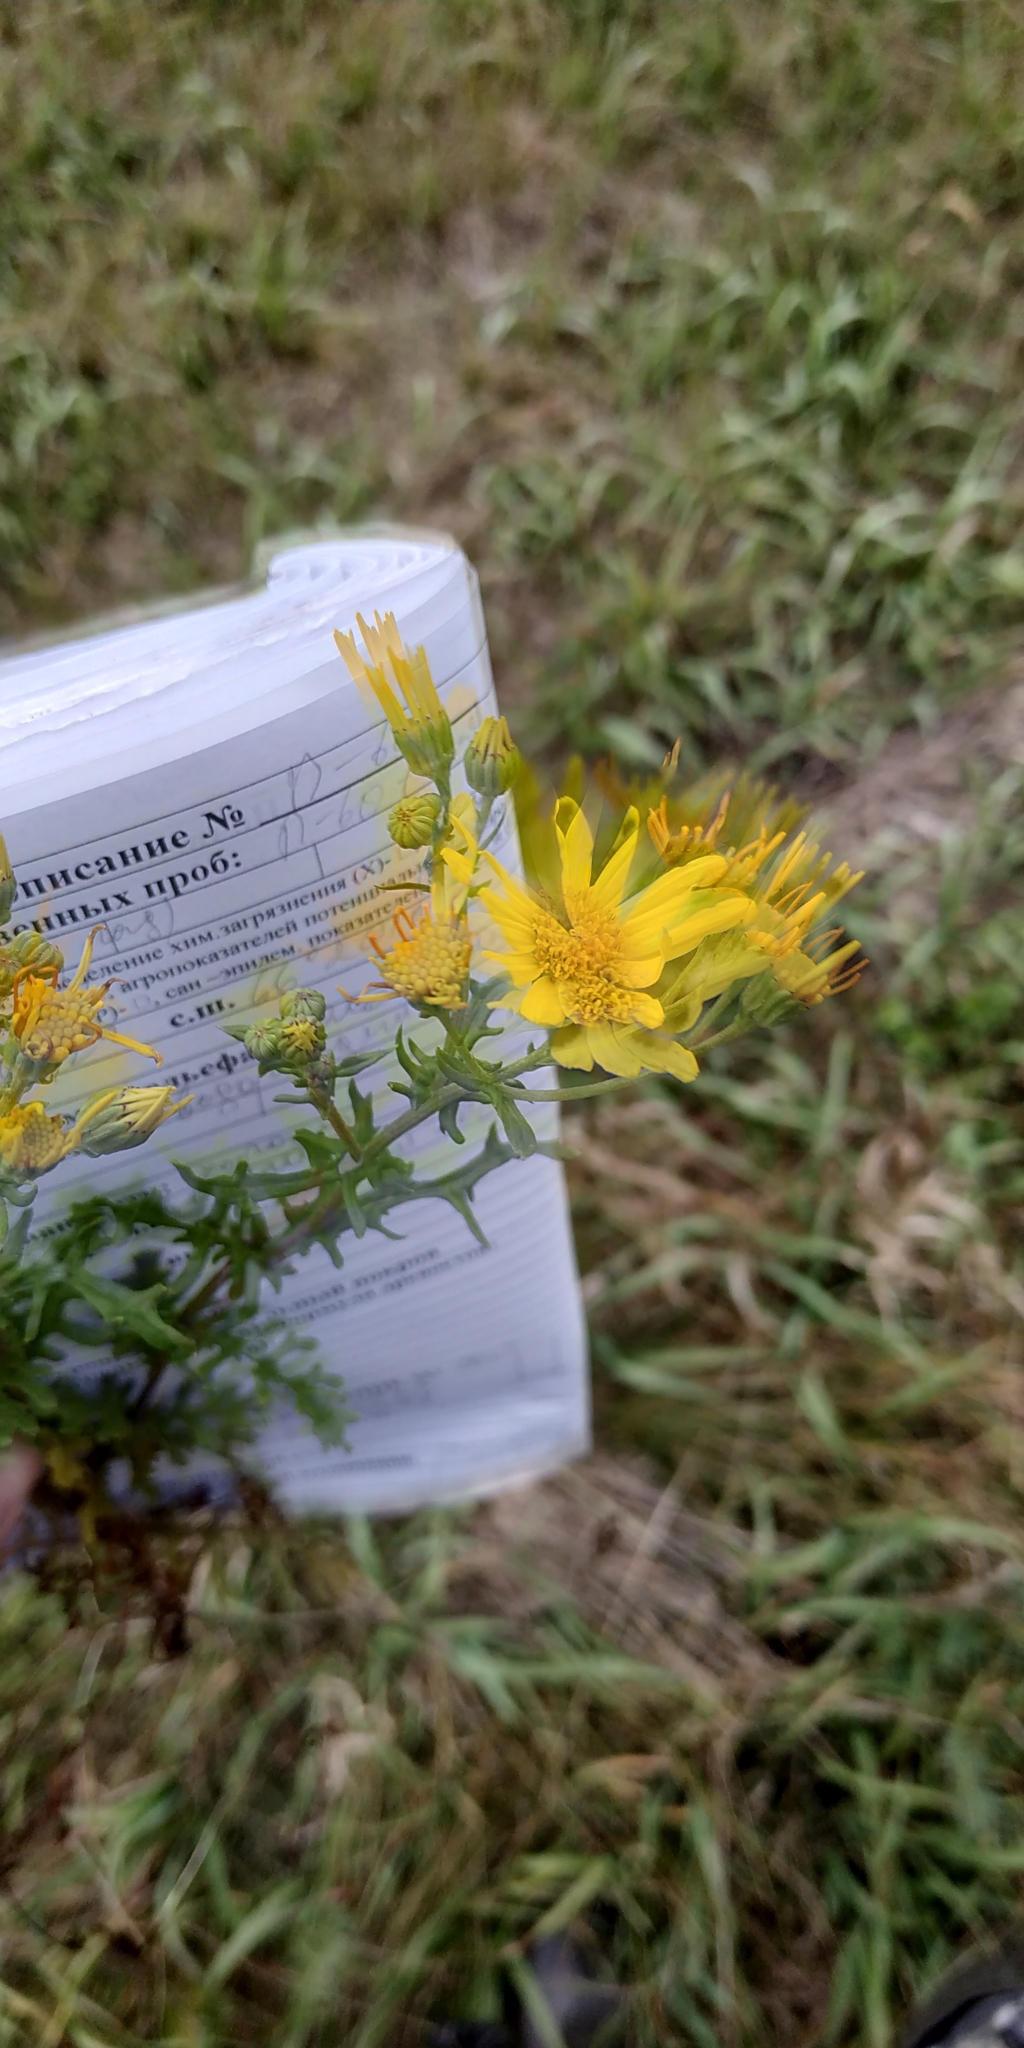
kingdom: Plantae
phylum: Tracheophyta
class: Magnoliopsida
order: Asterales
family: Asteraceae
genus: Jacobaea
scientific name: Jacobaea erucifolia
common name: Hoary ragwort
